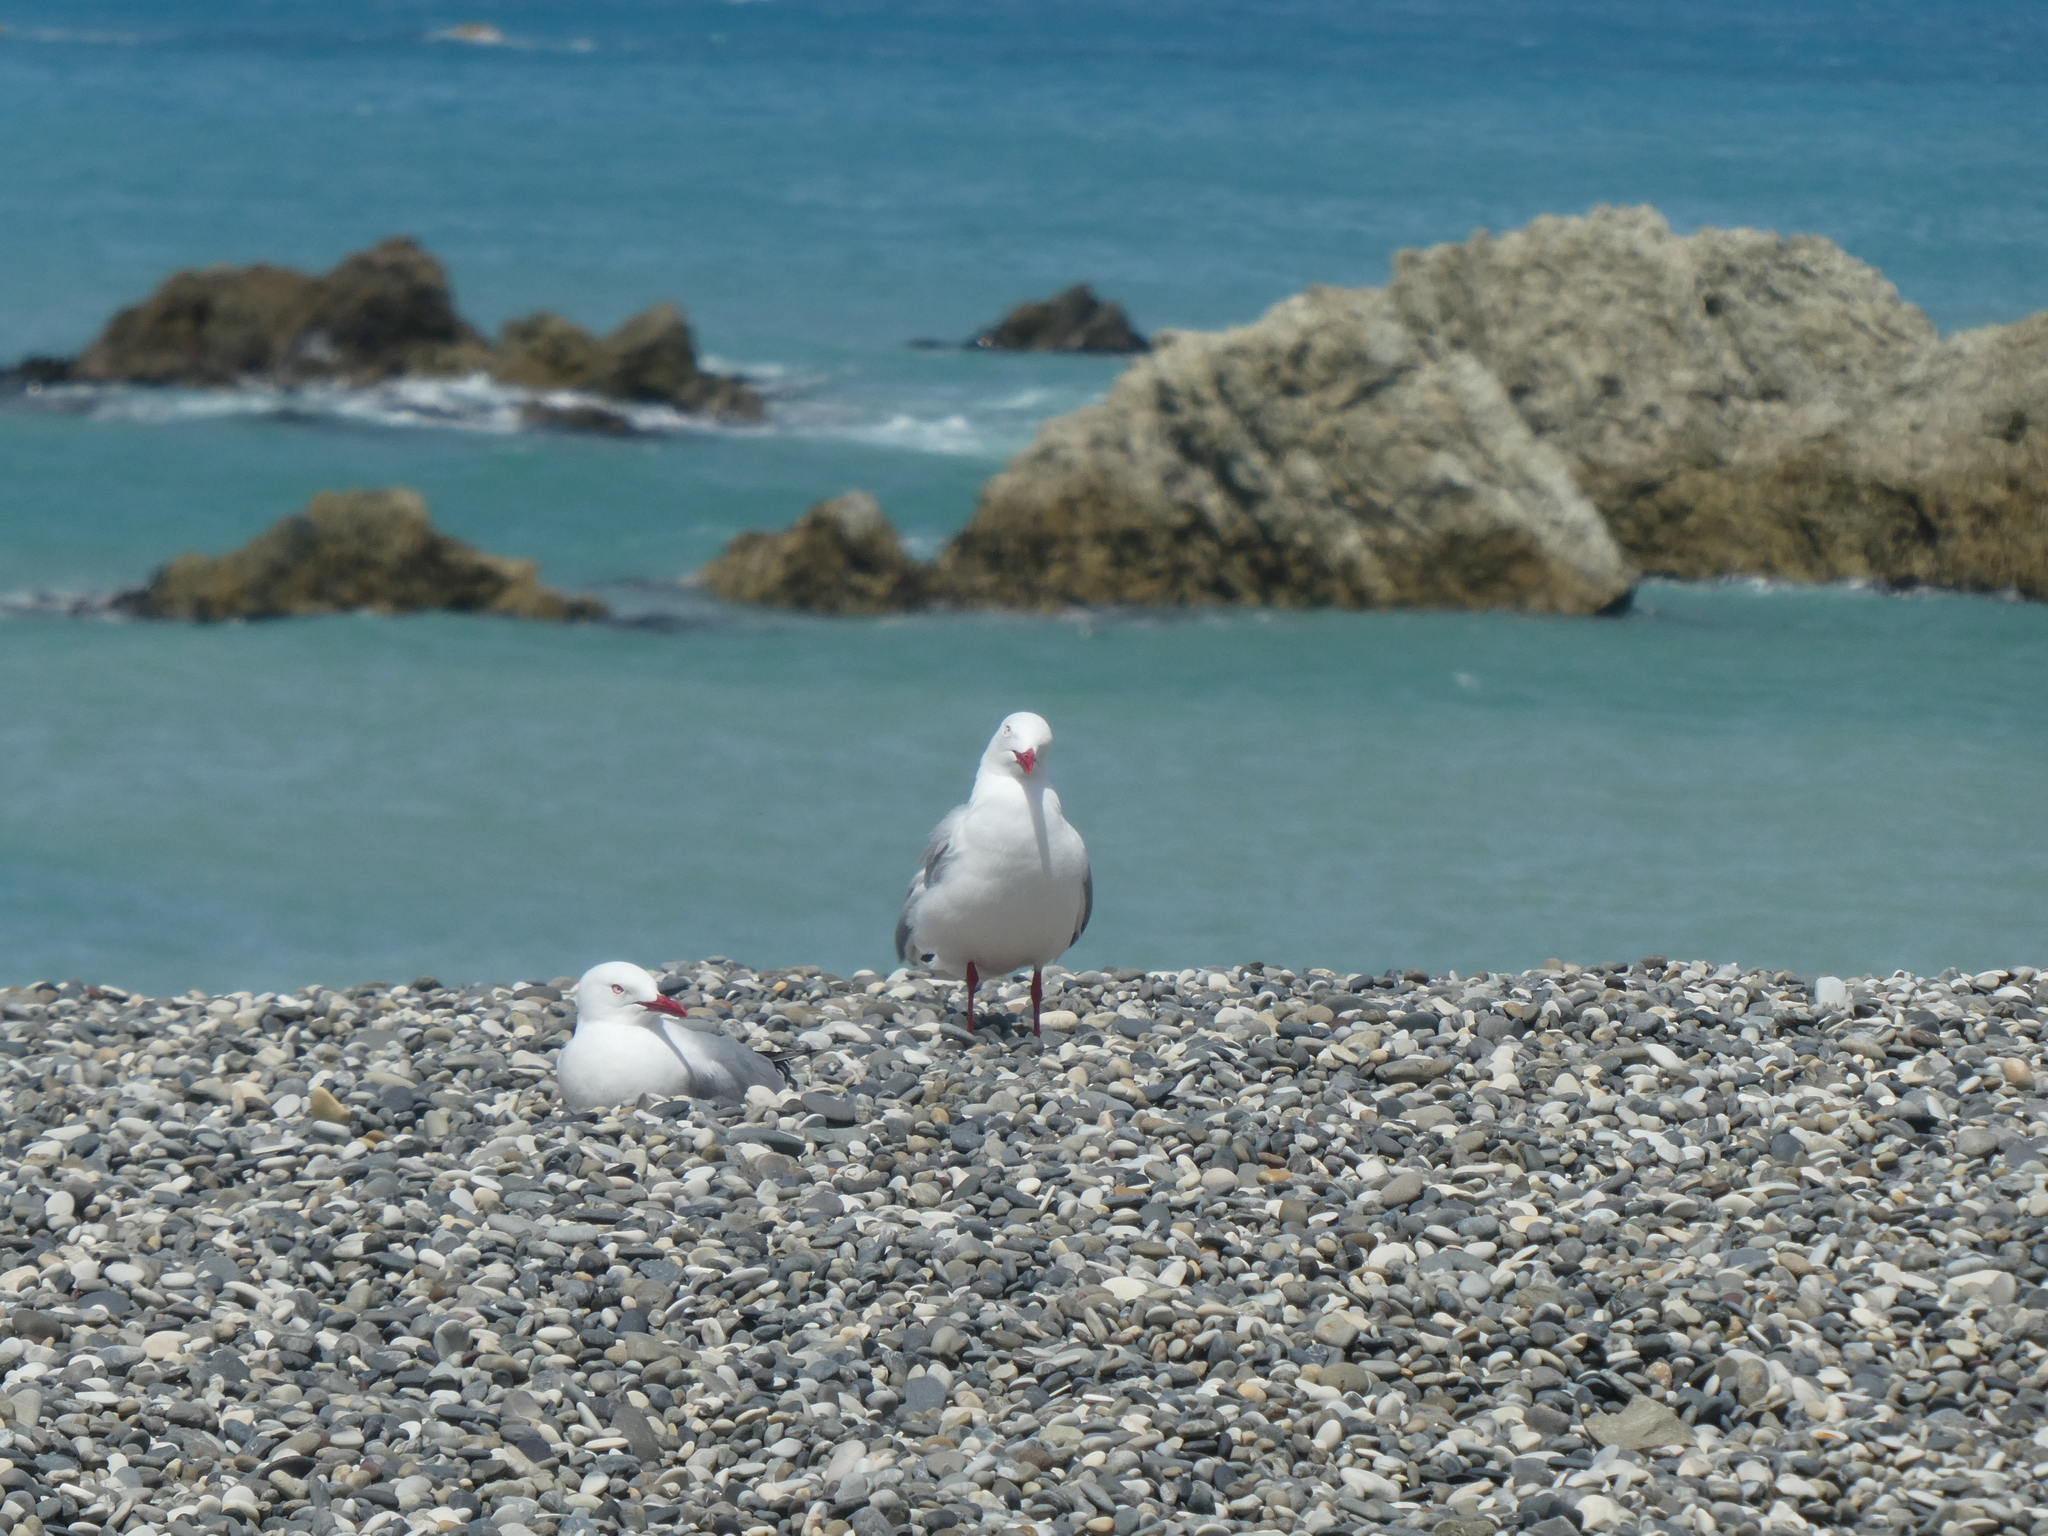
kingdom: Animalia
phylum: Chordata
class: Aves
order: Charadriiformes
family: Laridae
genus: Chroicocephalus
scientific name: Chroicocephalus novaehollandiae
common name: Silver gull
